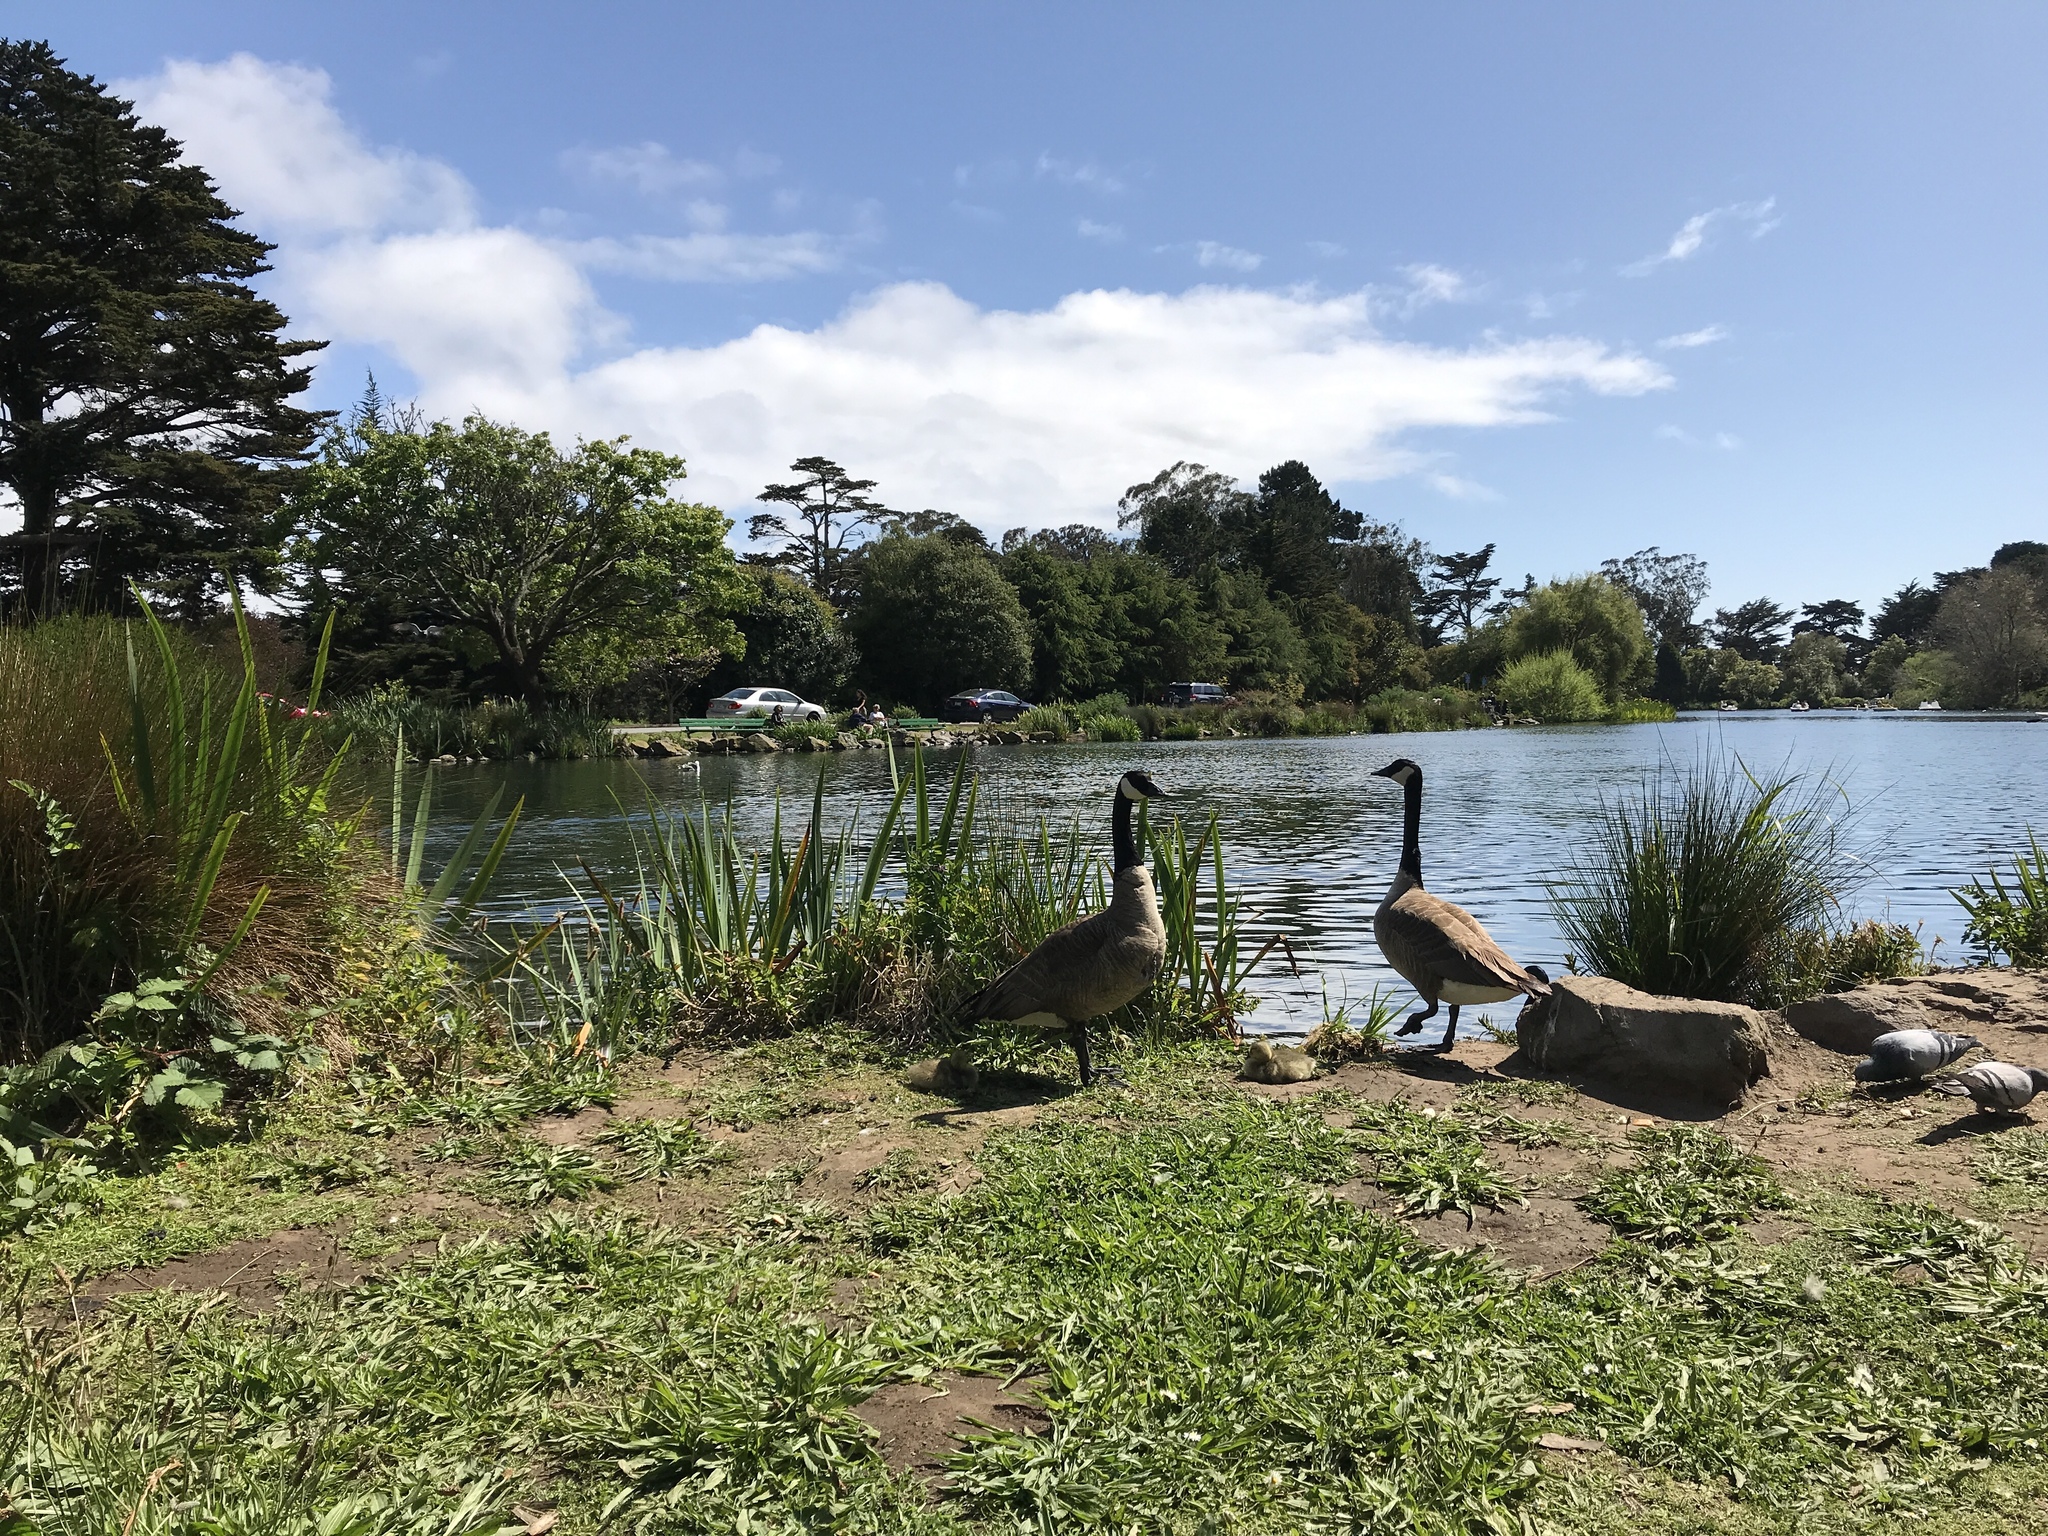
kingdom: Animalia
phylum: Chordata
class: Aves
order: Anseriformes
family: Anatidae
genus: Branta
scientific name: Branta canadensis
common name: Canada goose
